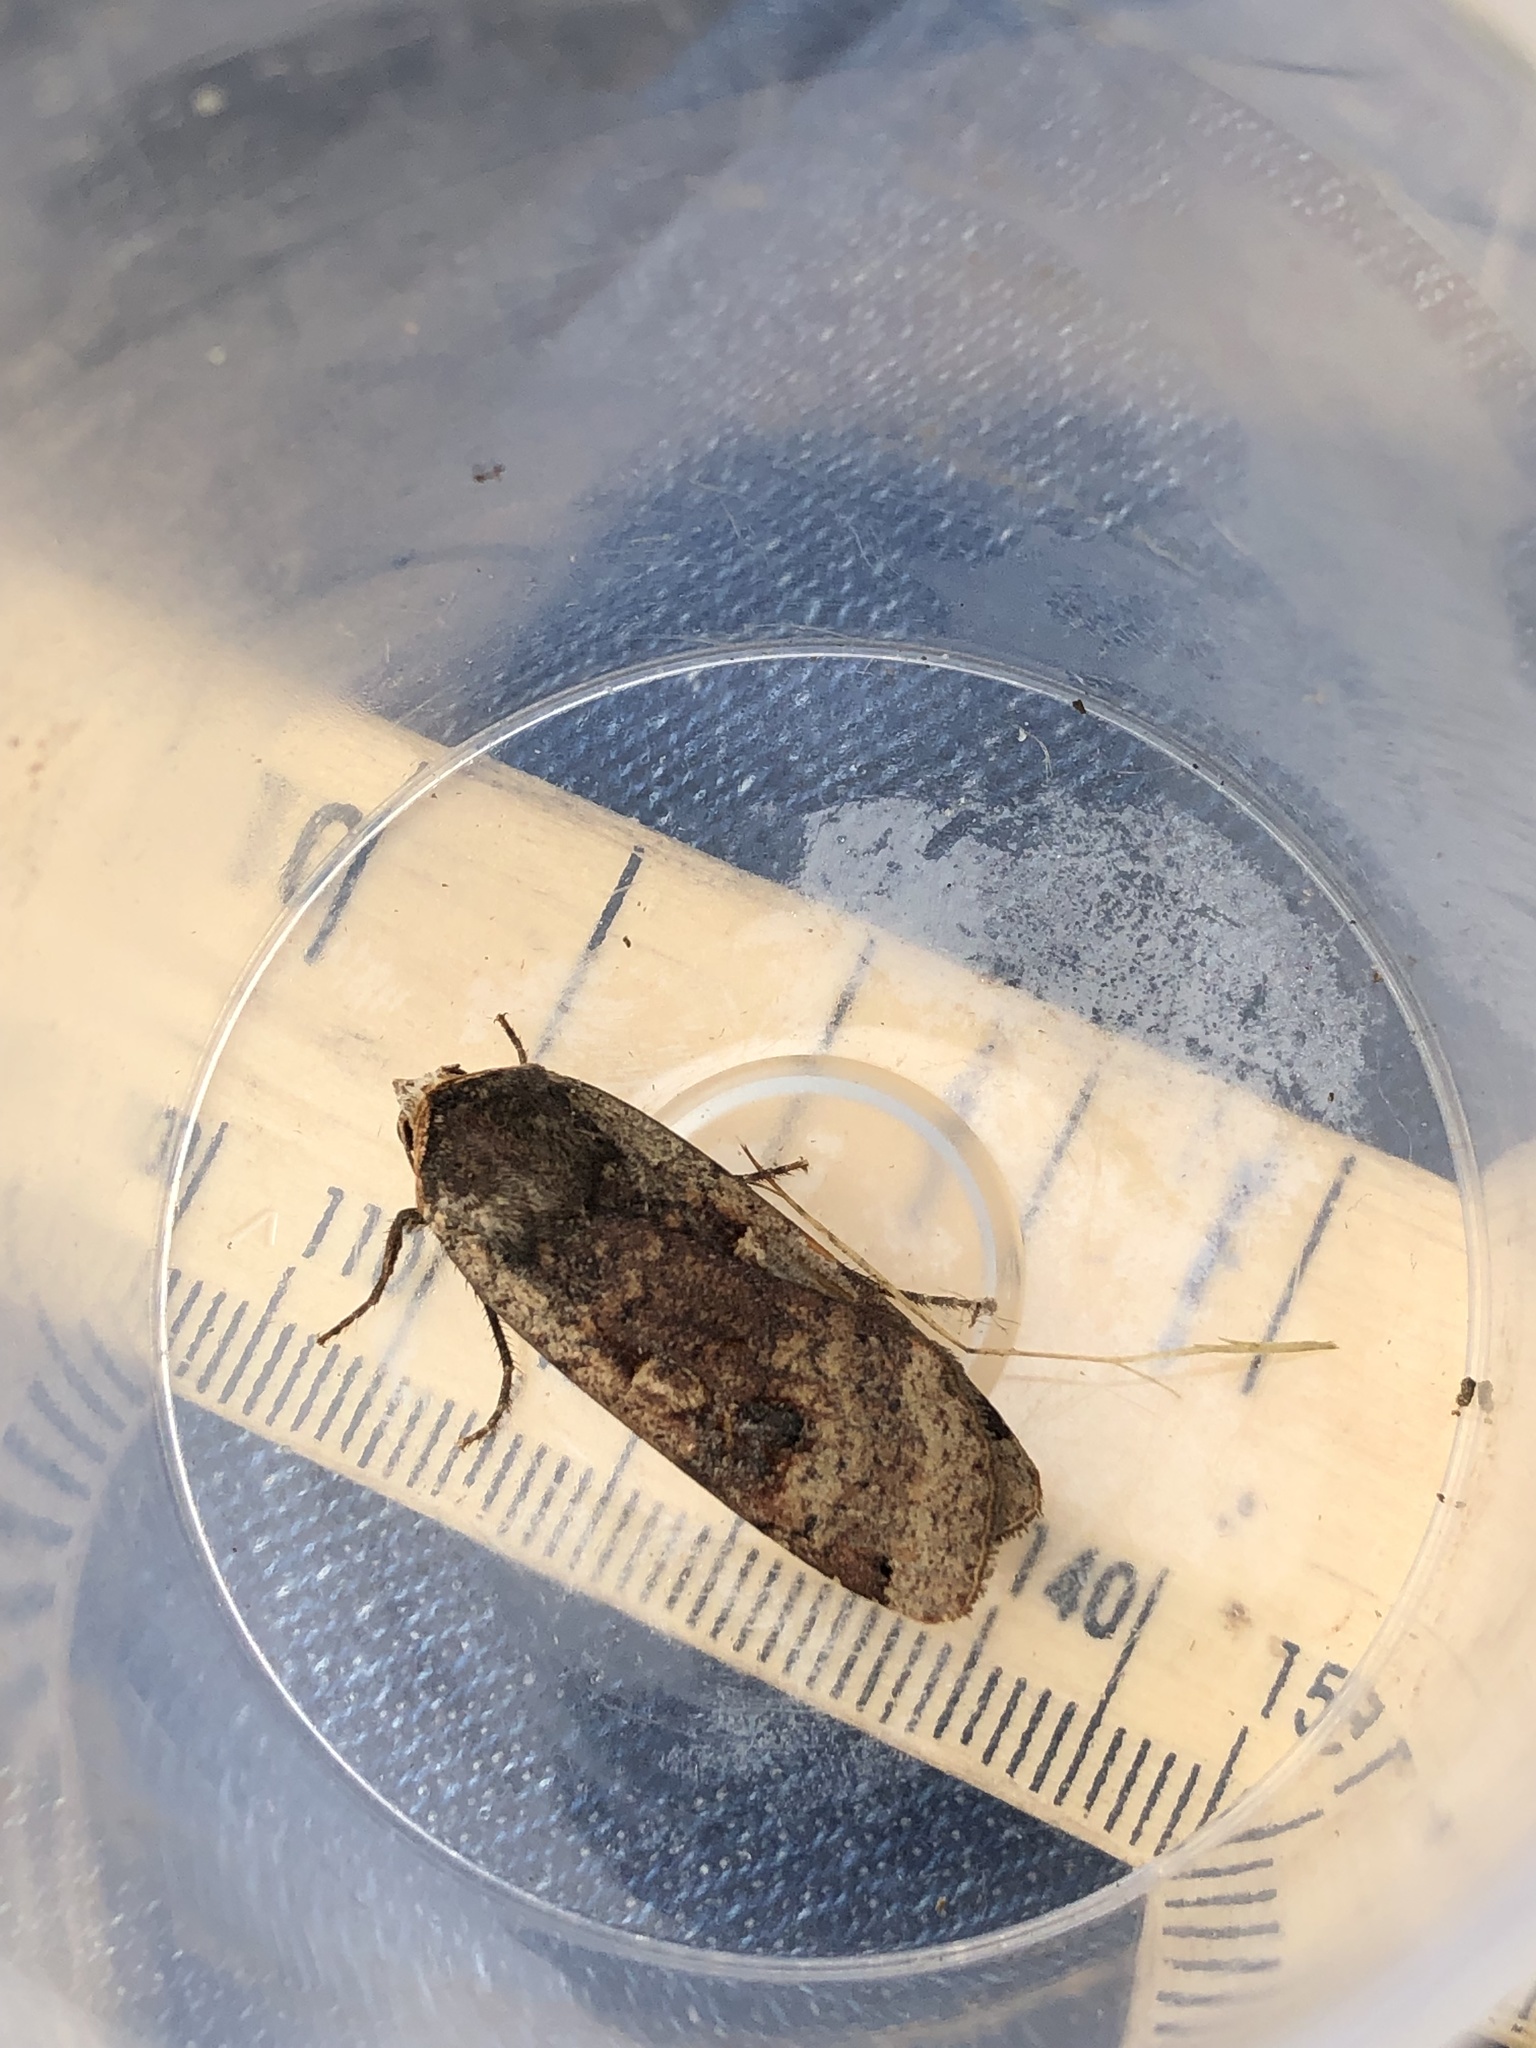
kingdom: Animalia
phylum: Arthropoda
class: Insecta
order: Lepidoptera
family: Noctuidae
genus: Noctua
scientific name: Noctua pronuba
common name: Large yellow underwing
